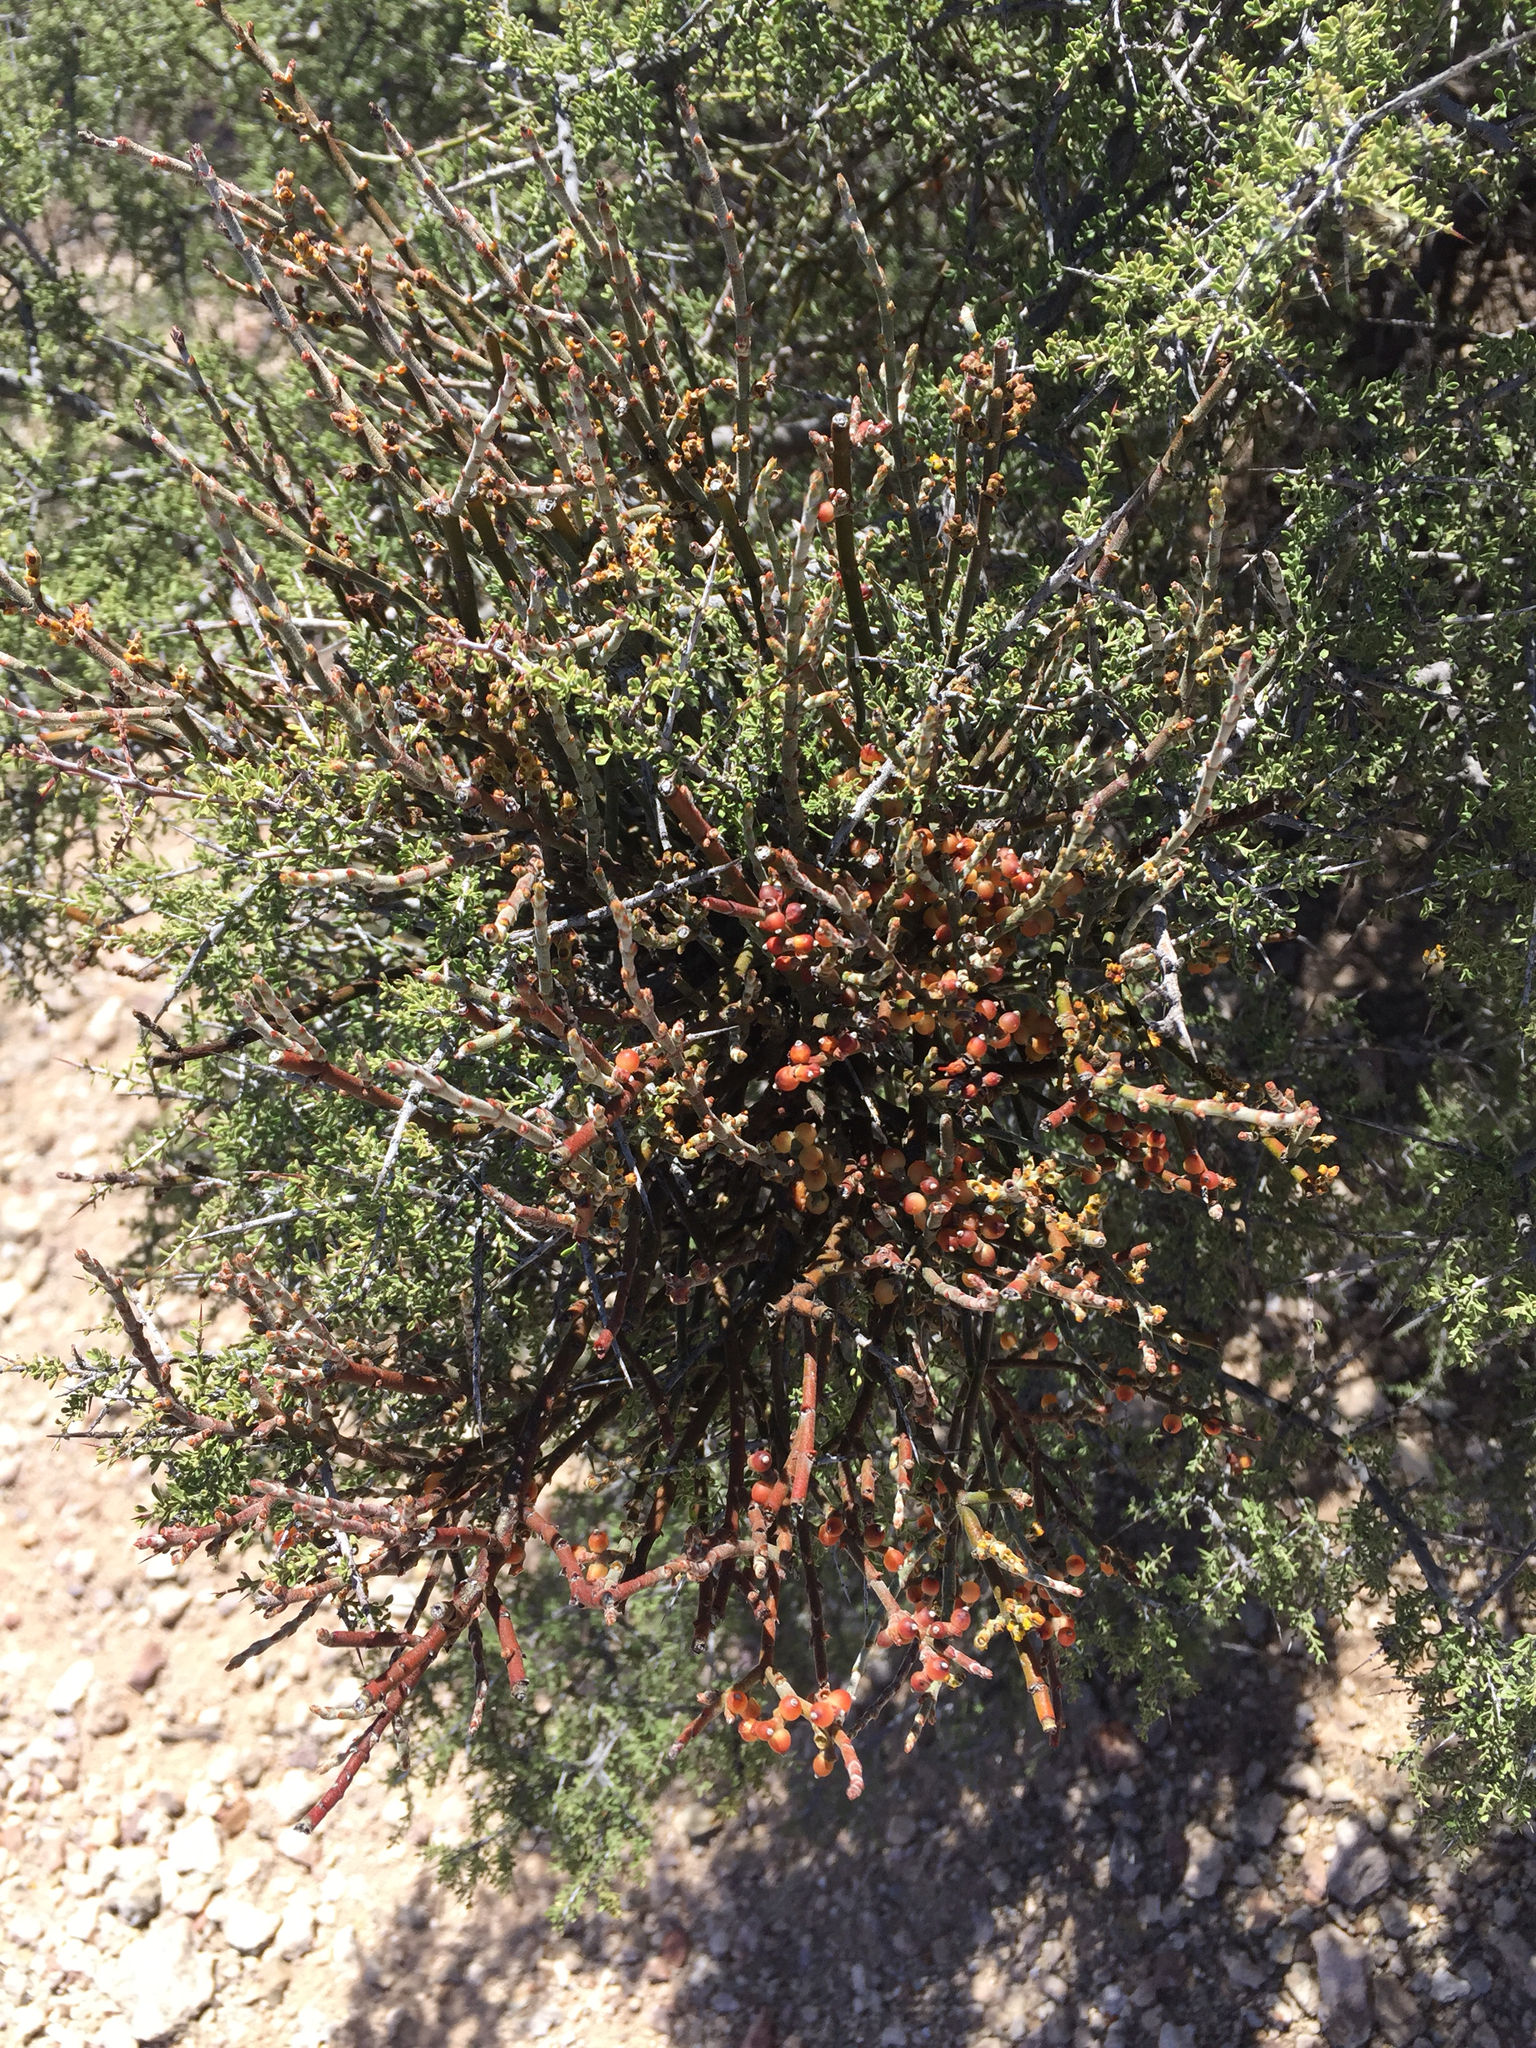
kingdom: Plantae
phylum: Tracheophyta
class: Magnoliopsida
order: Santalales
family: Viscaceae
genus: Phoradendron
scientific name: Phoradendron californicum
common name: Acacia mistletoe
